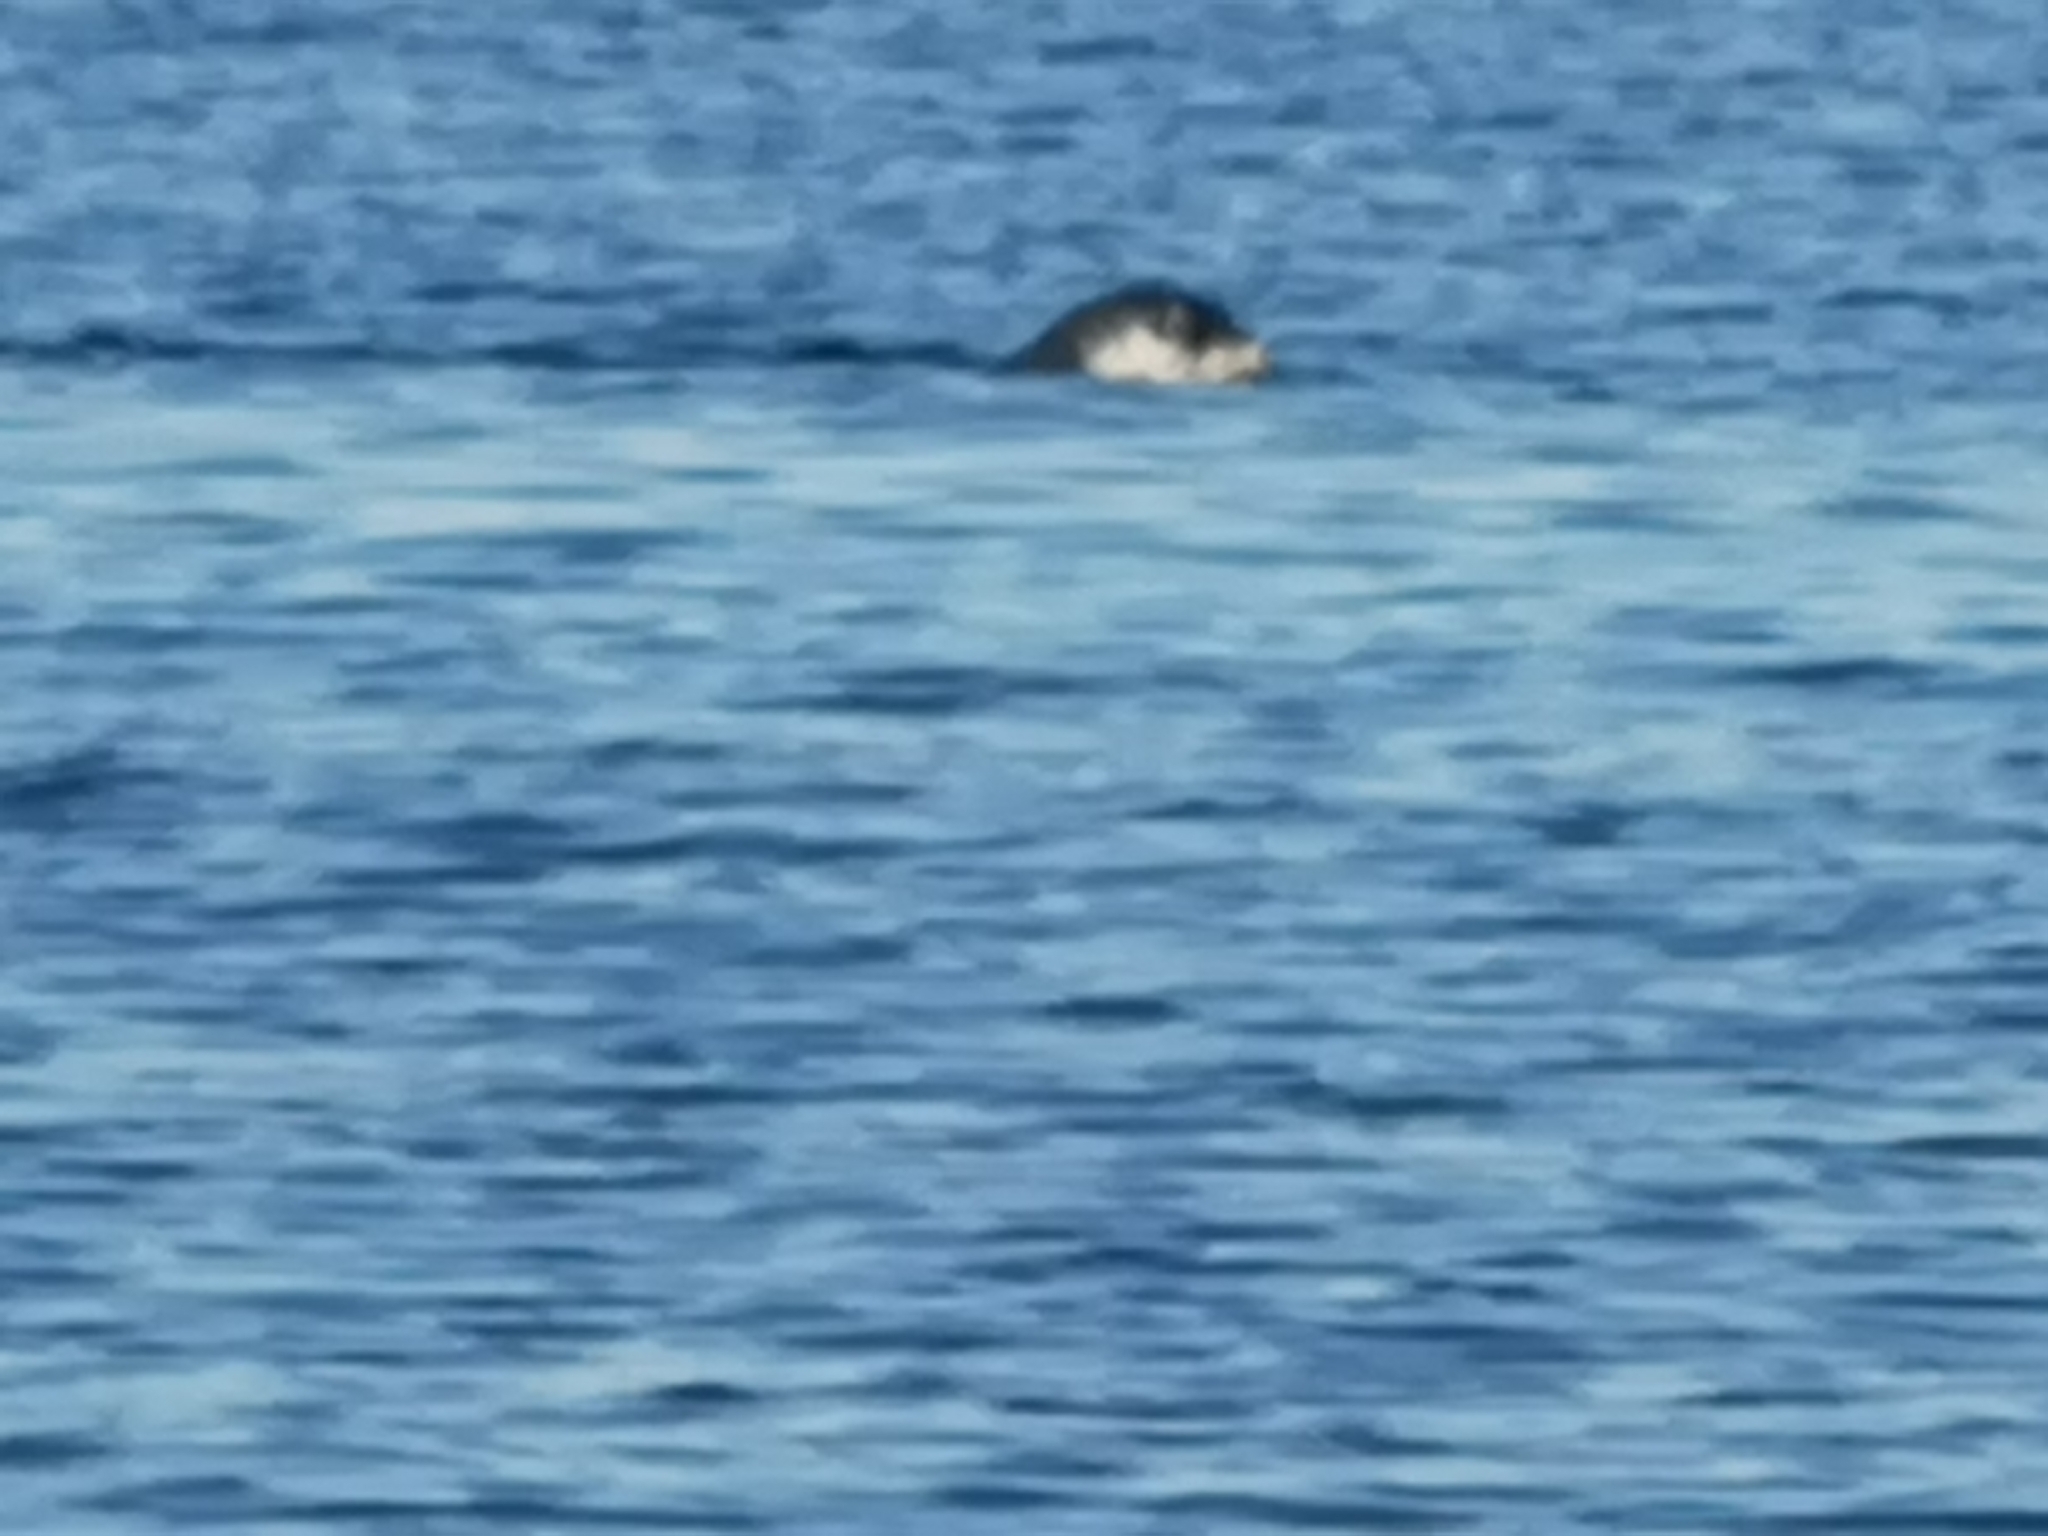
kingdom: Animalia
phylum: Chordata
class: Mammalia
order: Carnivora
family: Phocidae
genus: Monachus
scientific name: Monachus monachus
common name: Mediterranean monk seal
